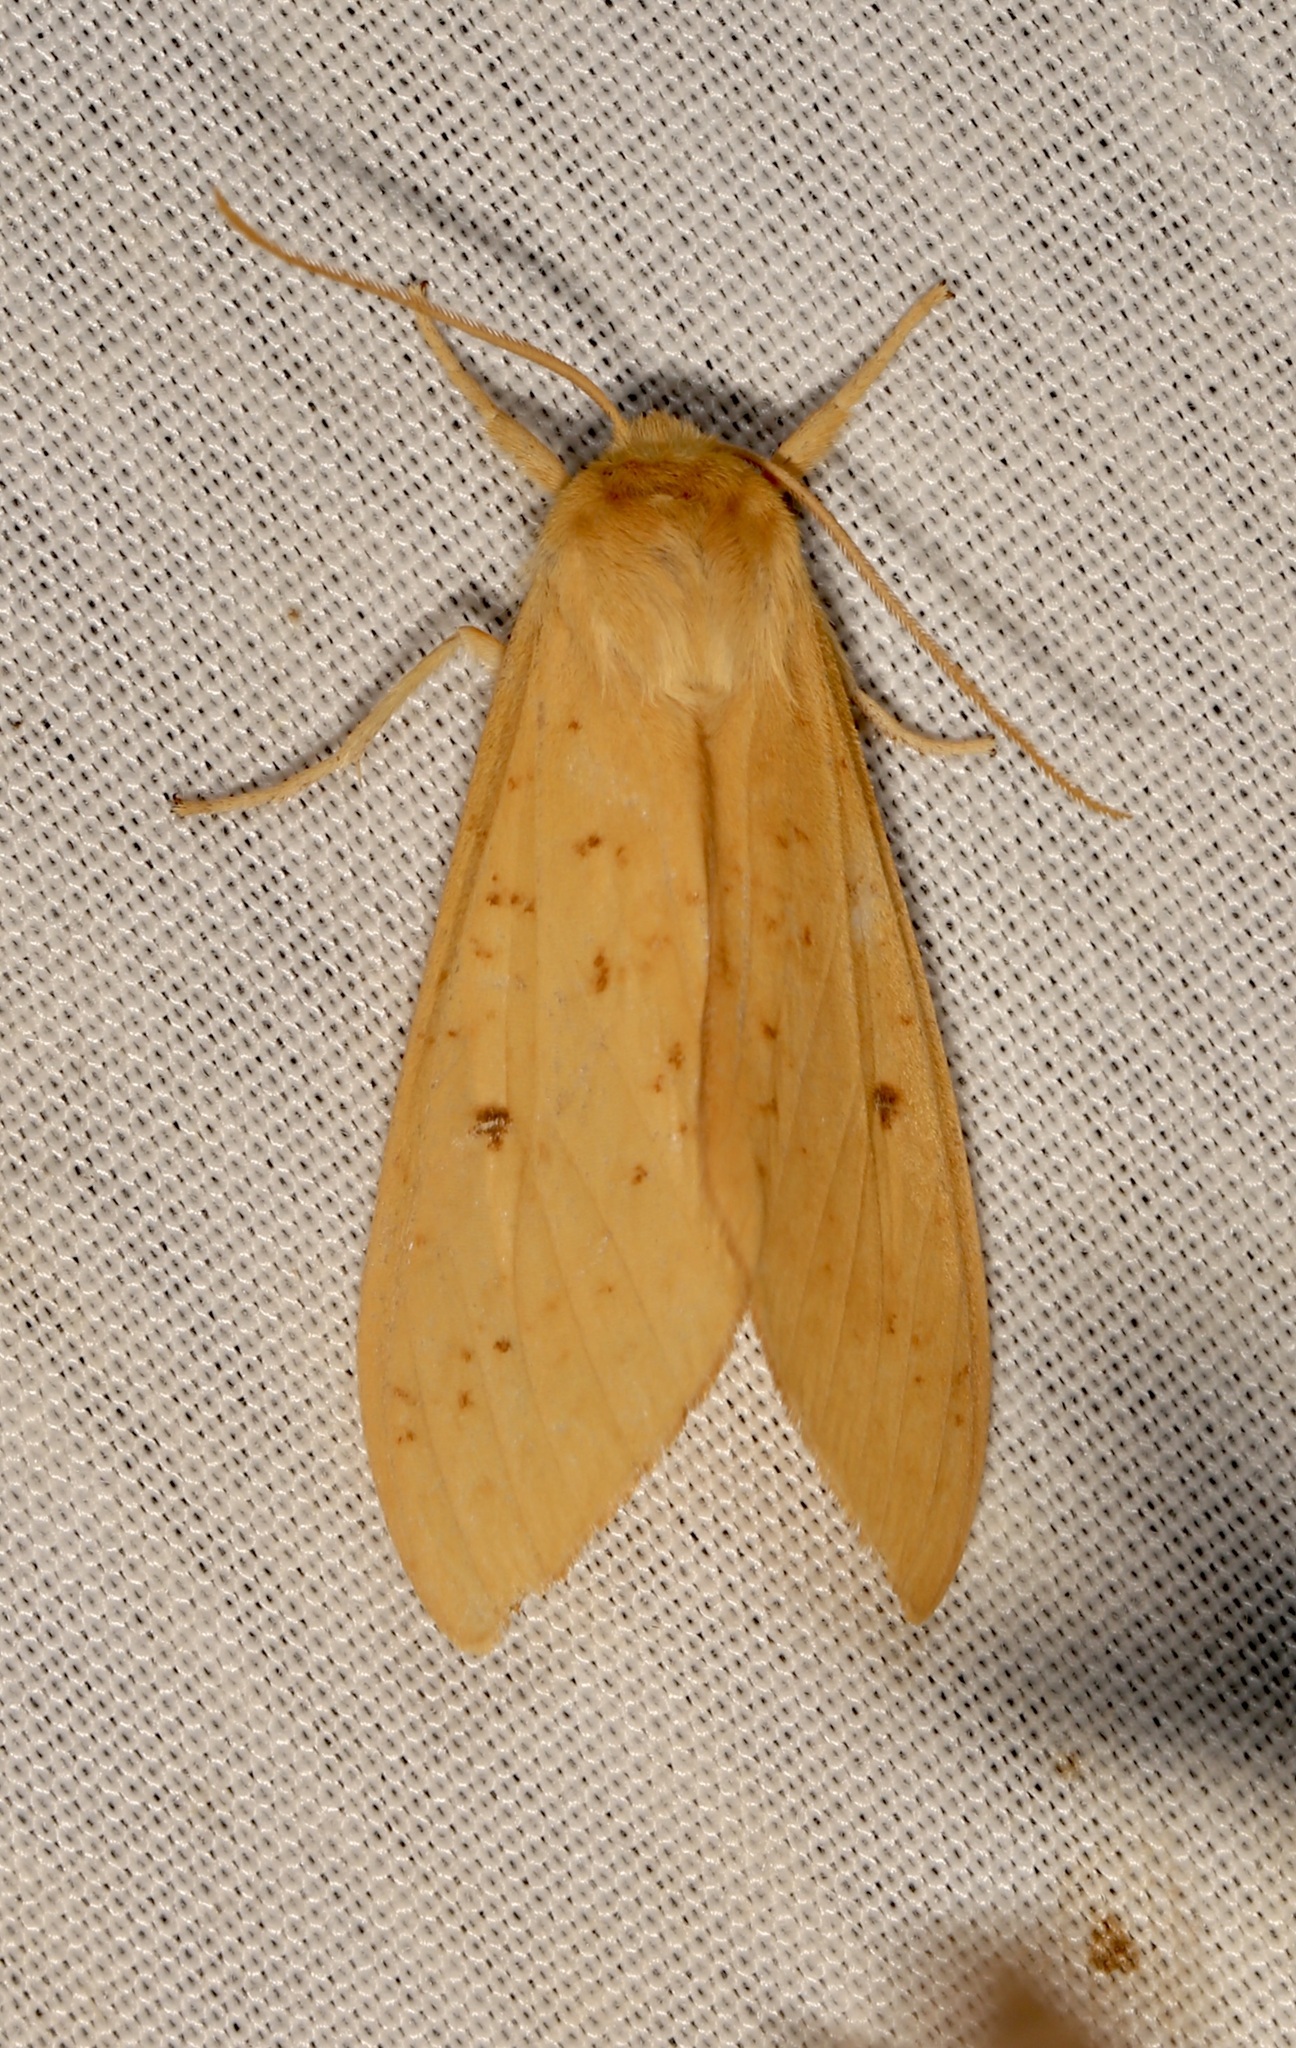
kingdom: Animalia
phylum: Arthropoda
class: Insecta
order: Lepidoptera
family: Erebidae
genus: Lophocampa
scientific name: Lophocampa pura
